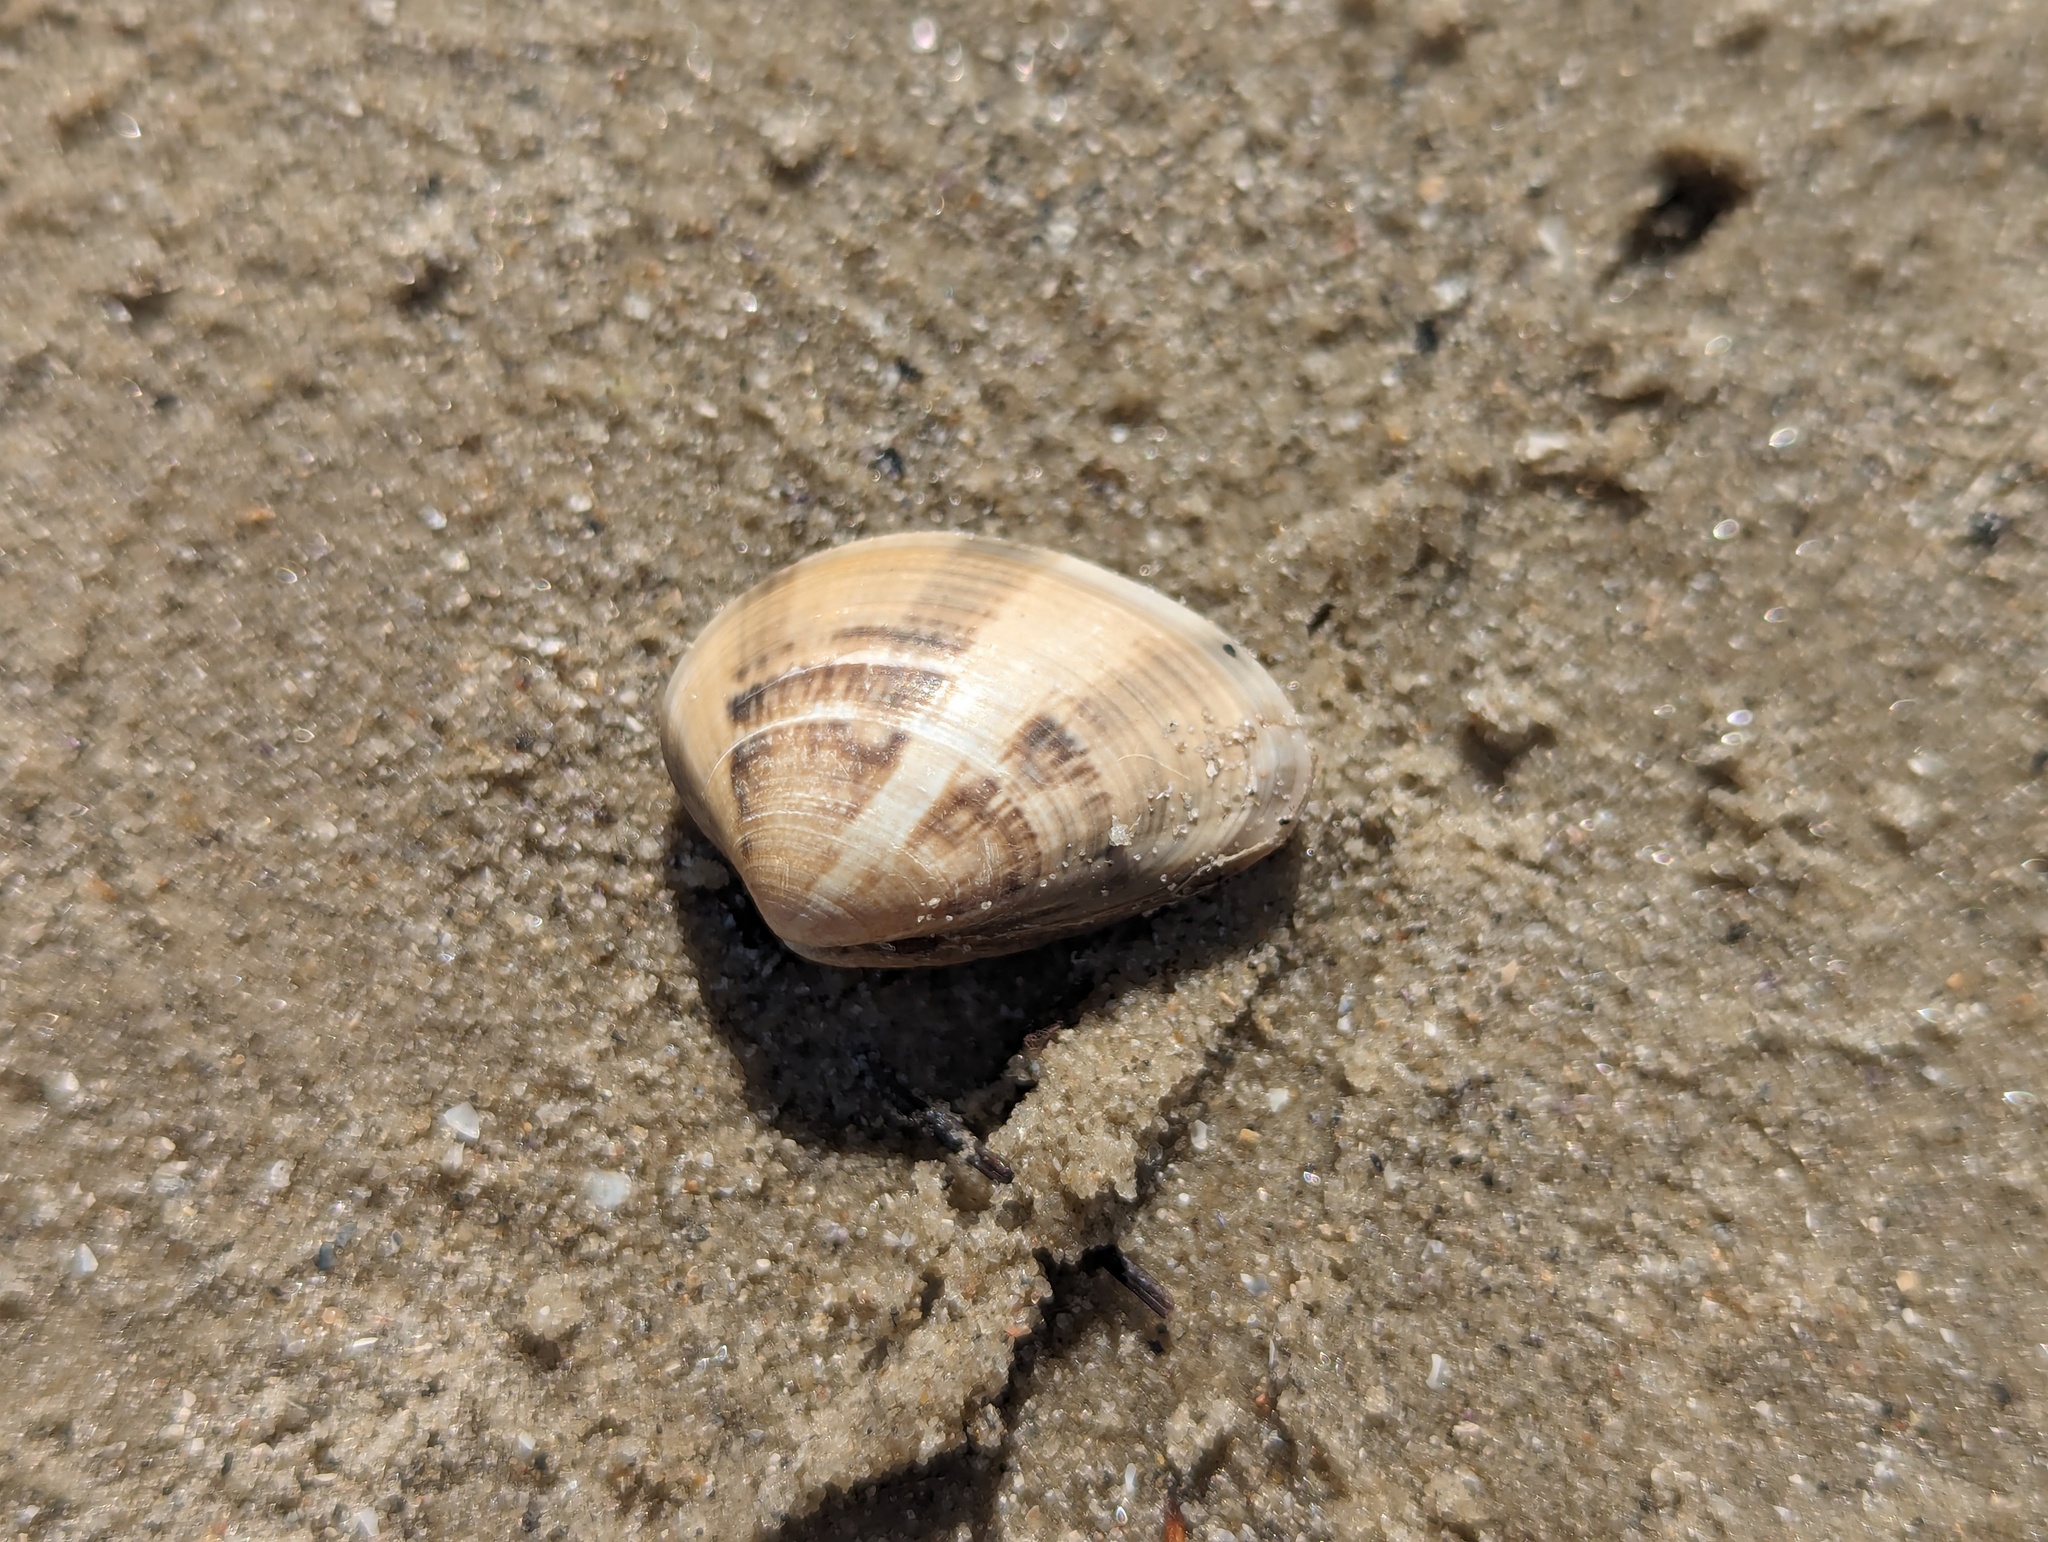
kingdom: Animalia
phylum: Mollusca
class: Bivalvia
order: Venerida
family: Veneridae
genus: Eumarcia
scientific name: Eumarcia fumigata
